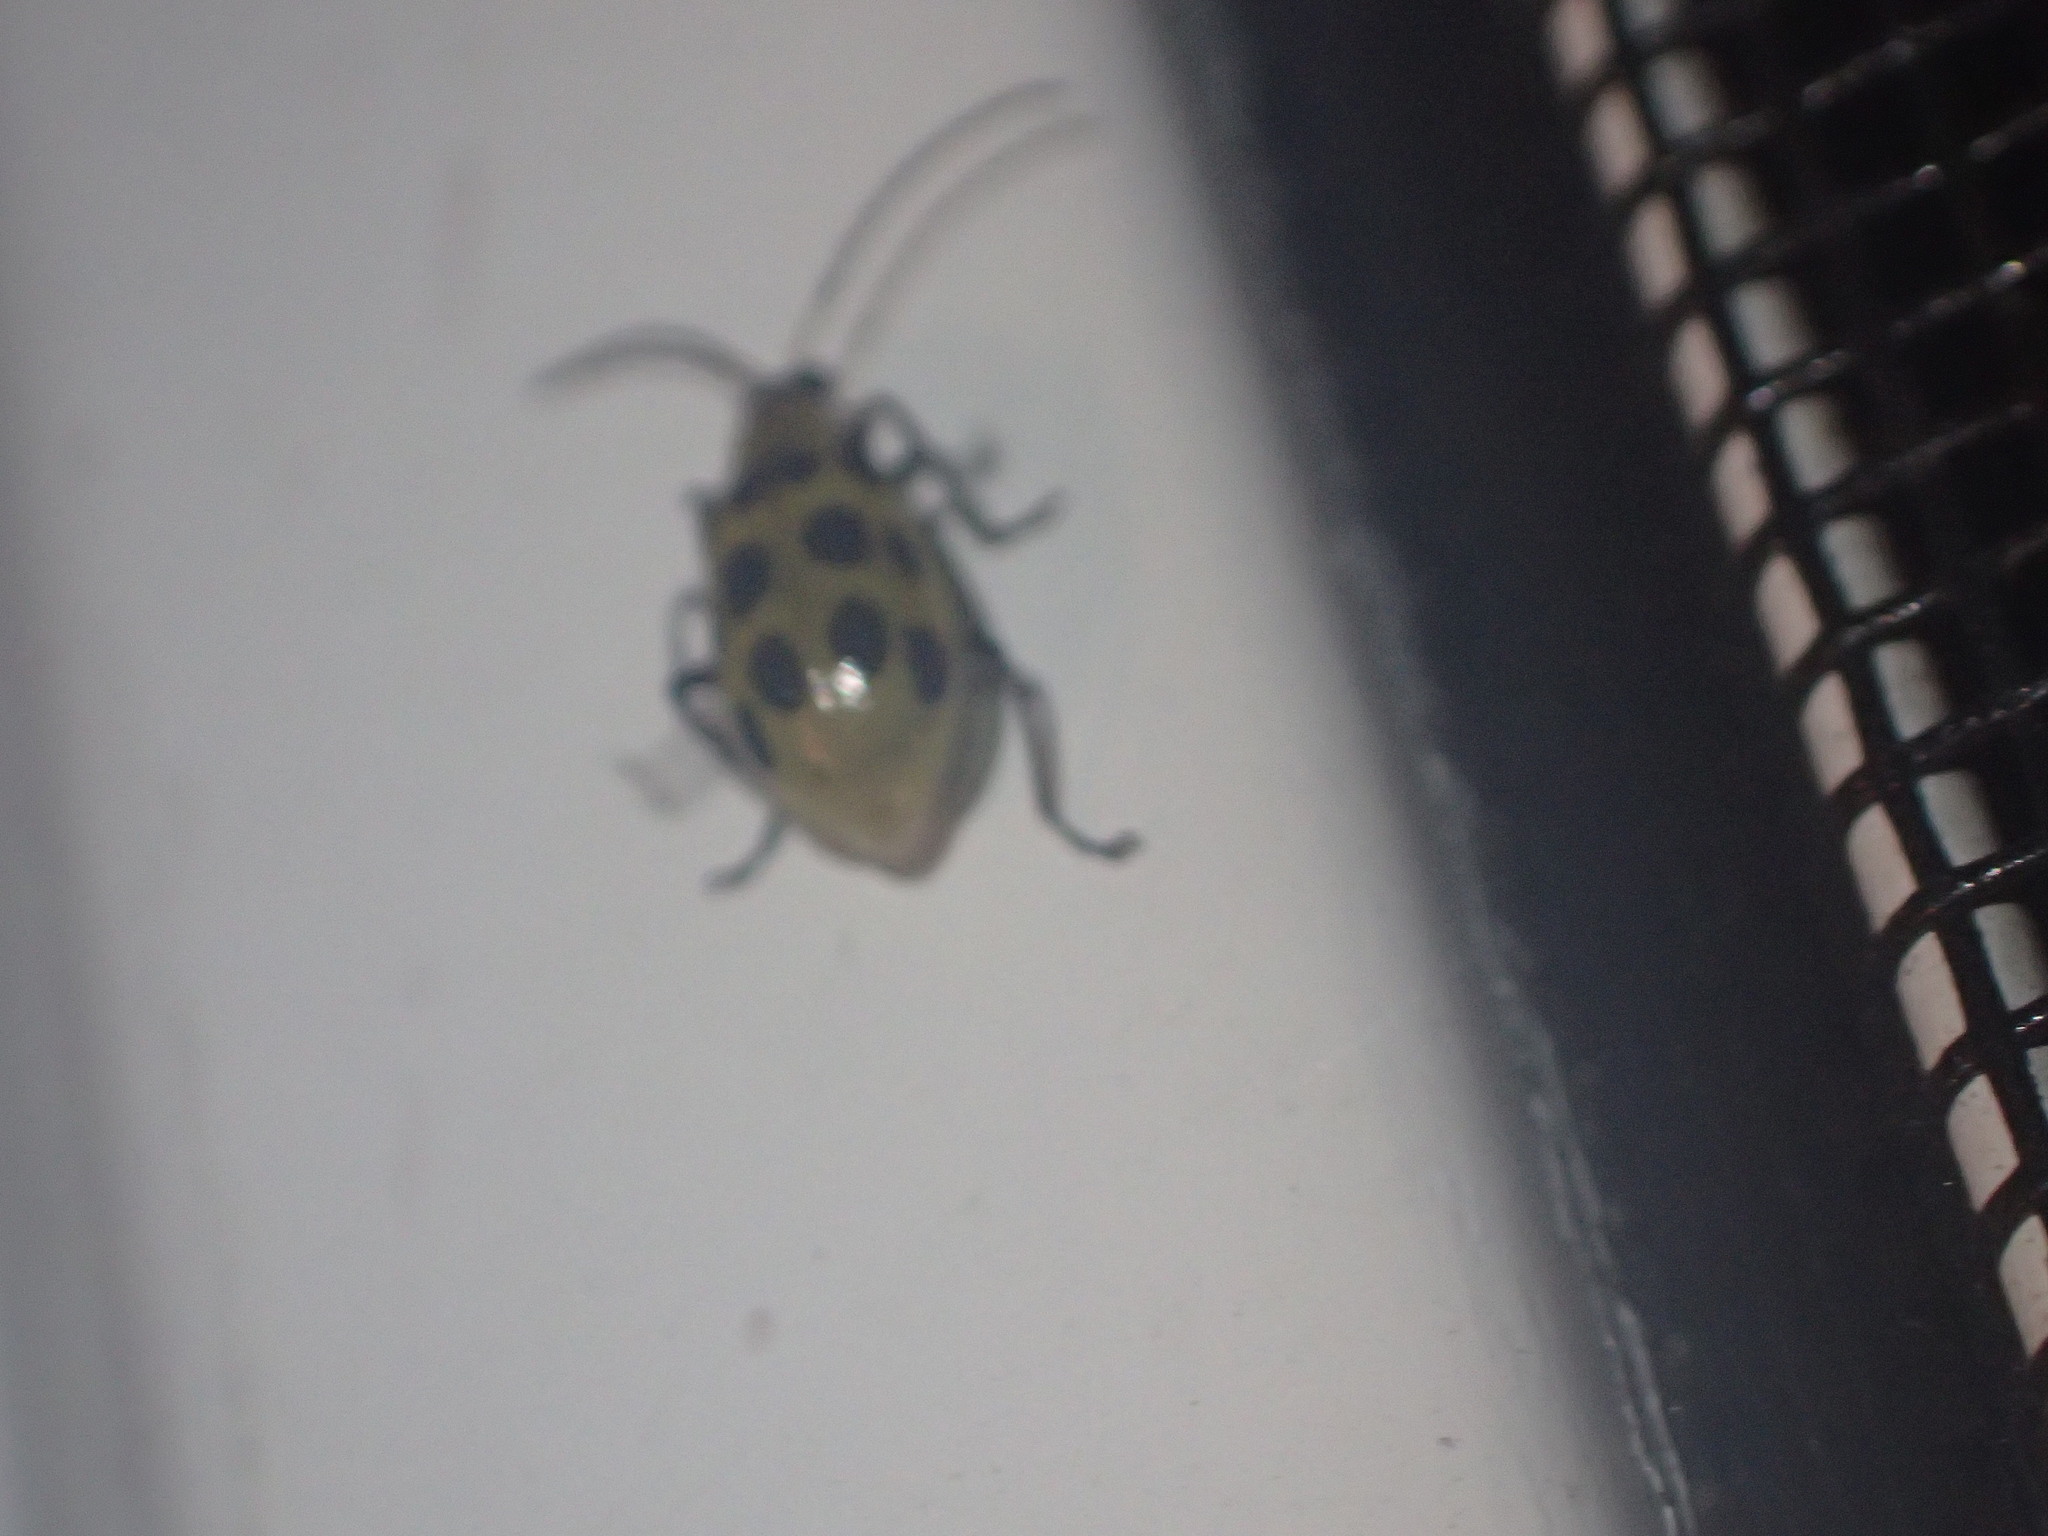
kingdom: Animalia
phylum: Arthropoda
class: Insecta
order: Coleoptera
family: Chrysomelidae
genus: Diabrotica
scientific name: Diabrotica undecimpunctata
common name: Spotted cucumber beetle
